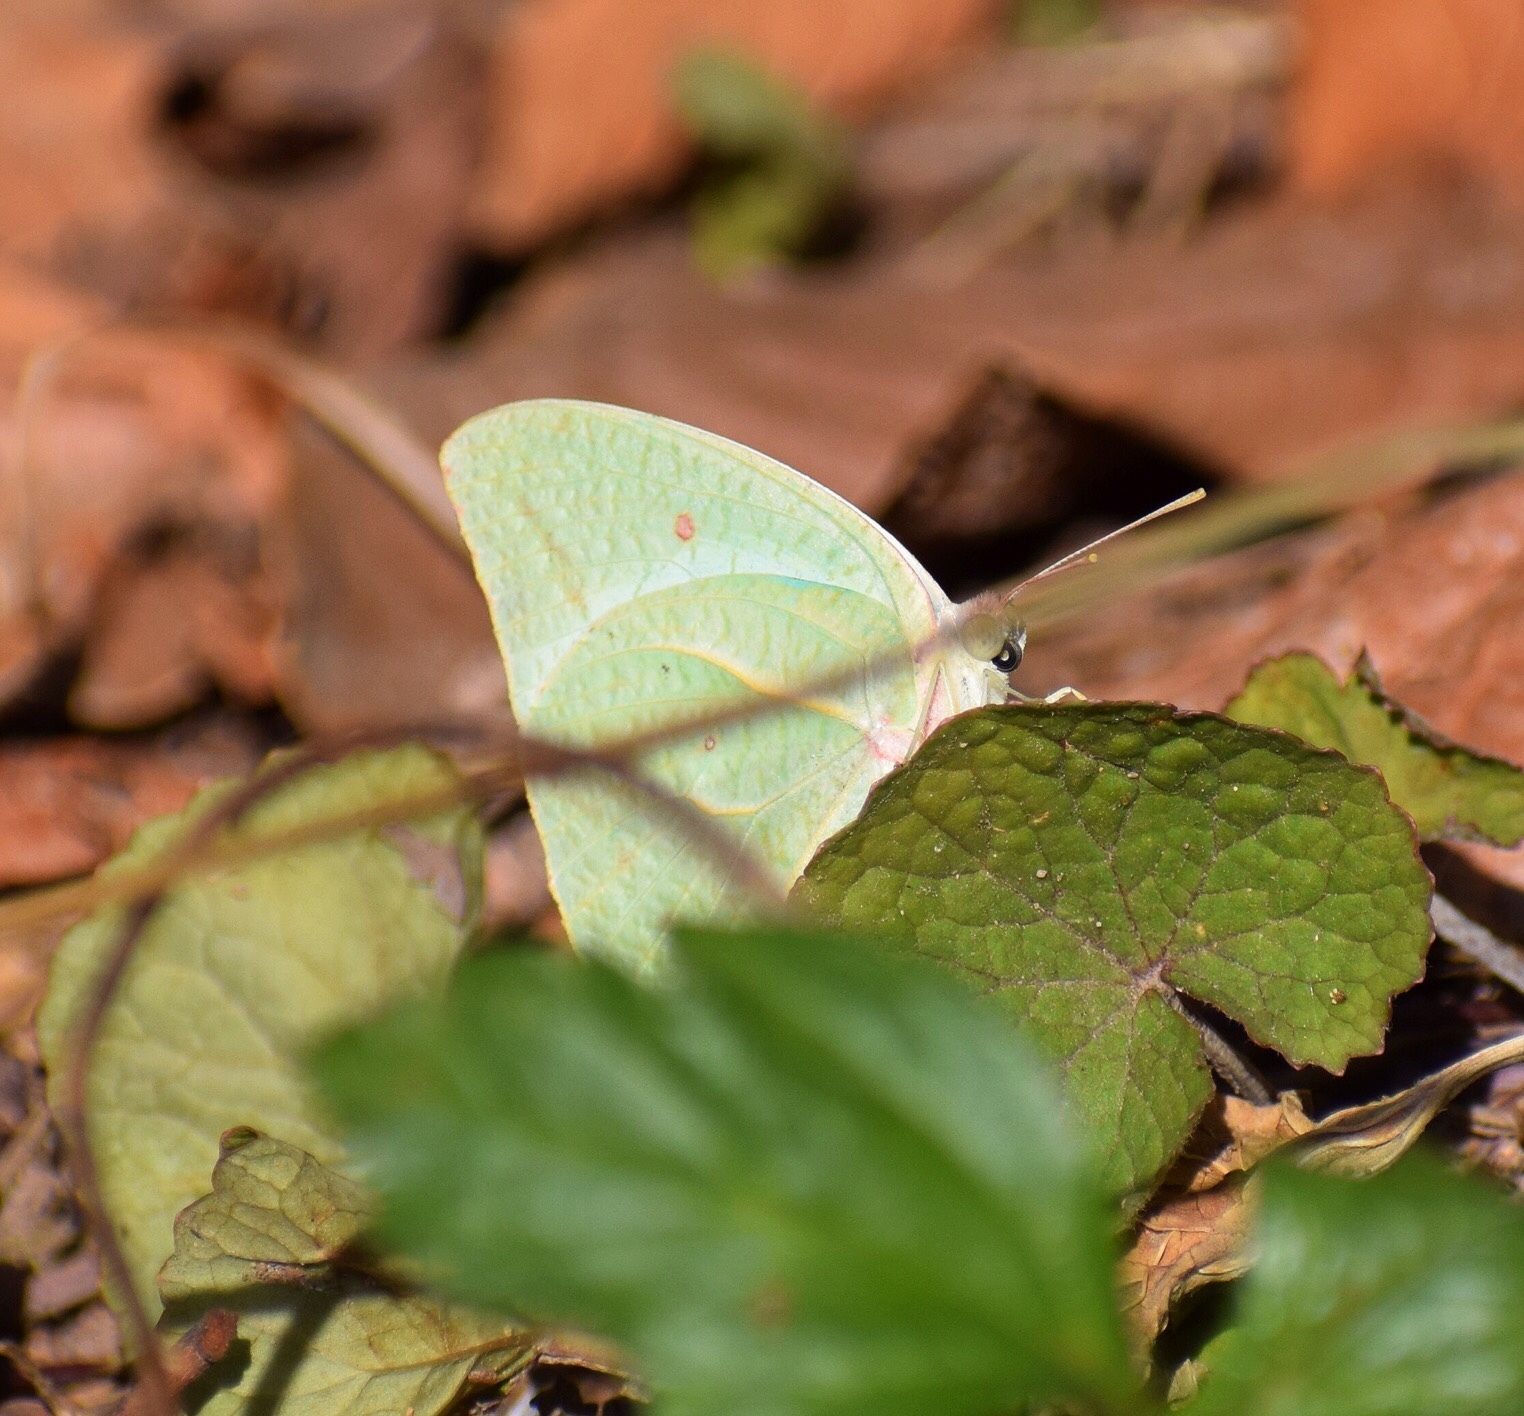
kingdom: Animalia
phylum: Arthropoda
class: Insecta
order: Lepidoptera
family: Pieridae
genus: Catopsilia
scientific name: Catopsilia florella
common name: African migrant
